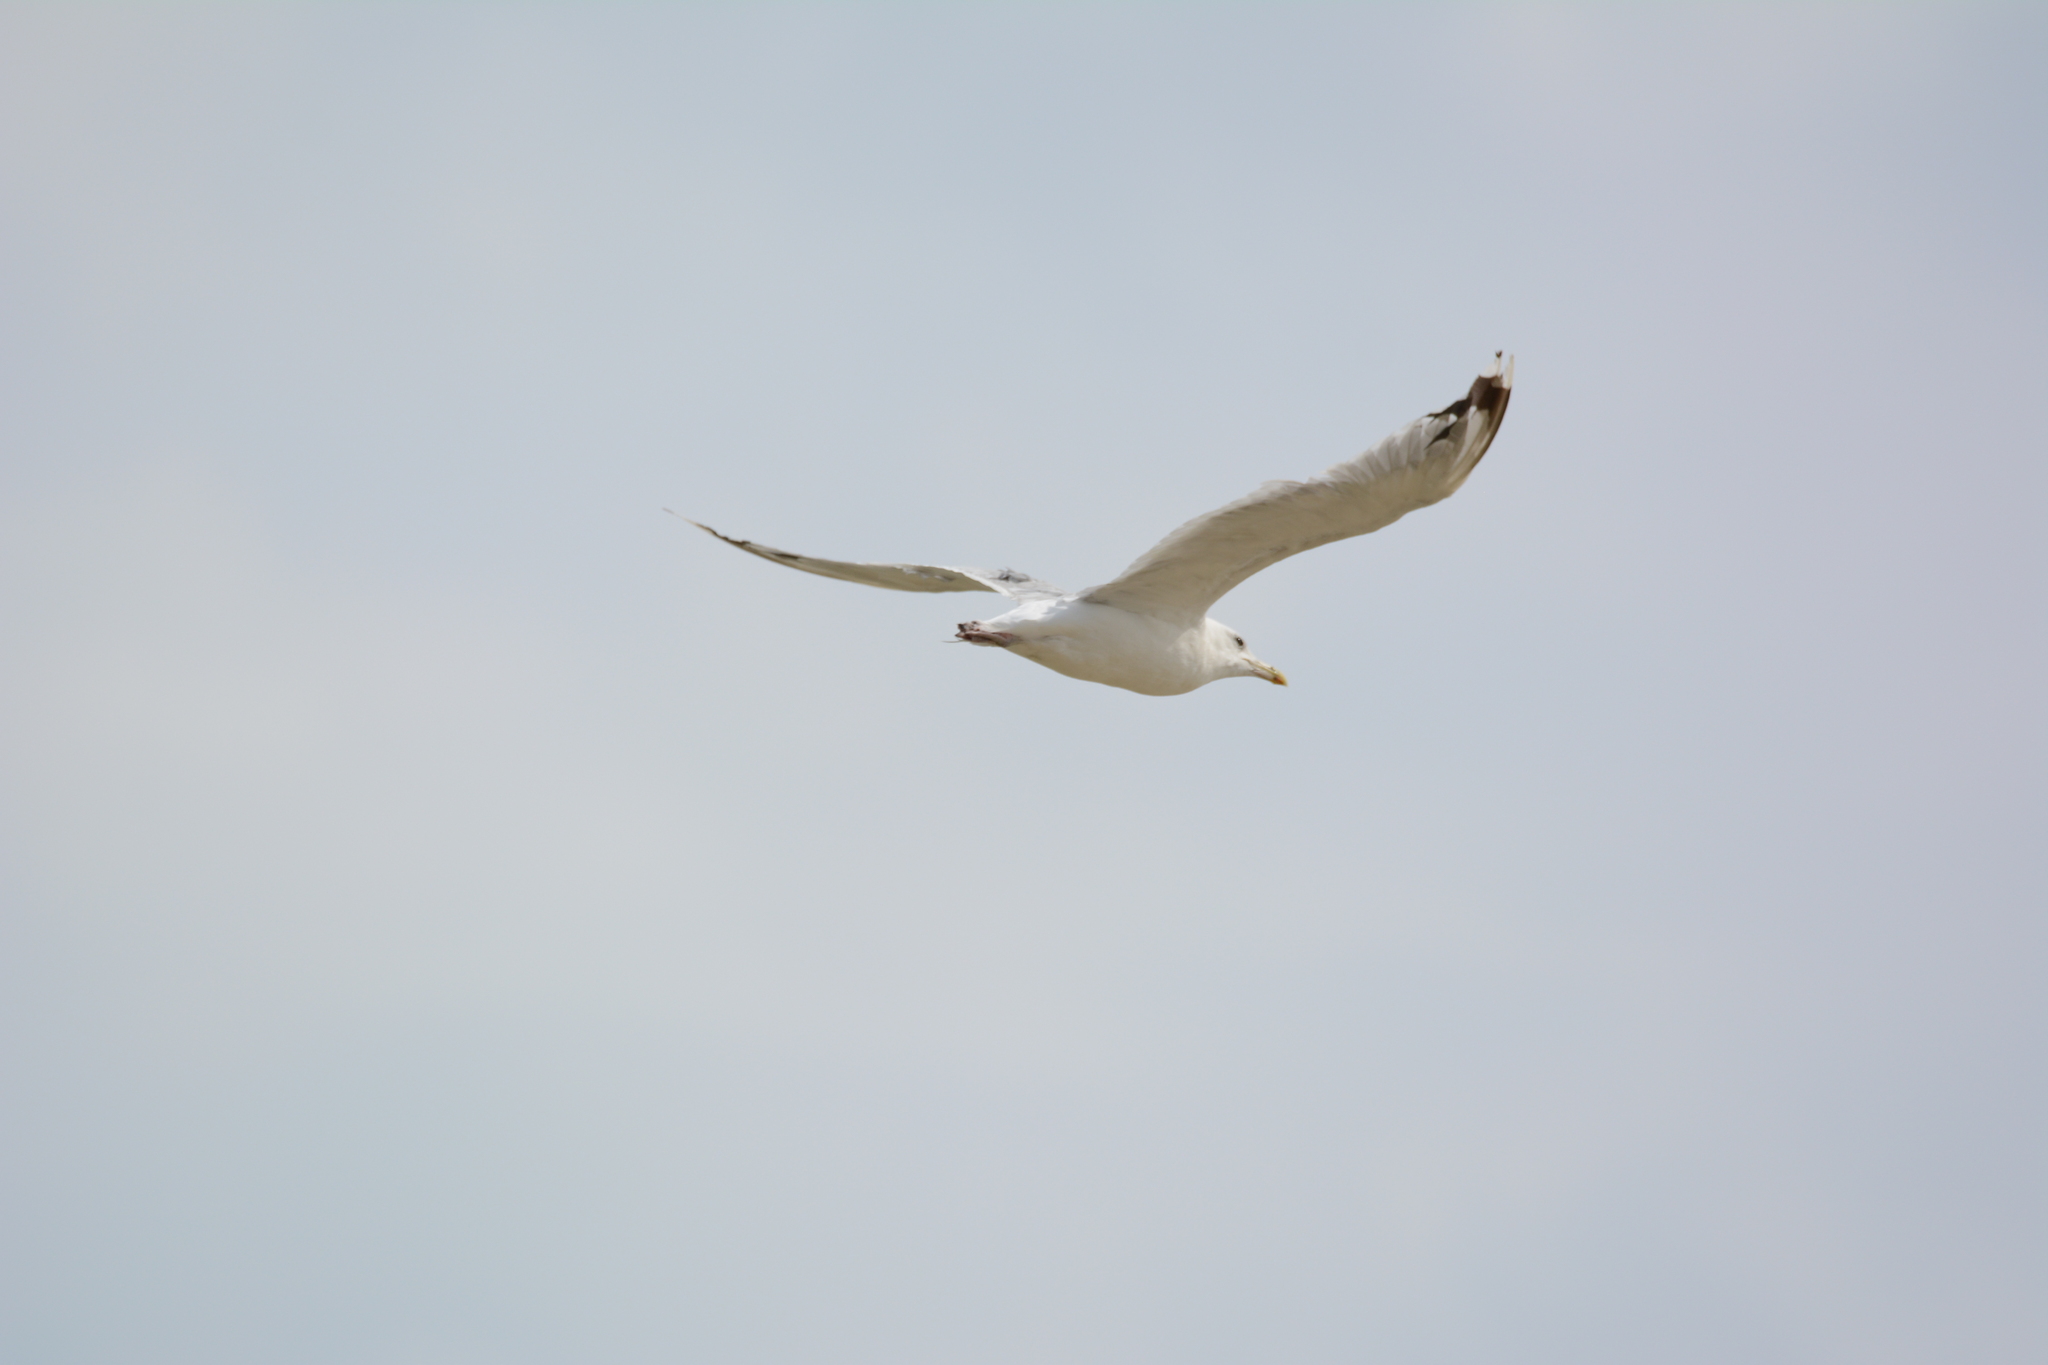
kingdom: Animalia
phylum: Chordata
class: Aves
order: Charadriiformes
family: Laridae
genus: Larus
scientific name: Larus cachinnans
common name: Caspian gull
